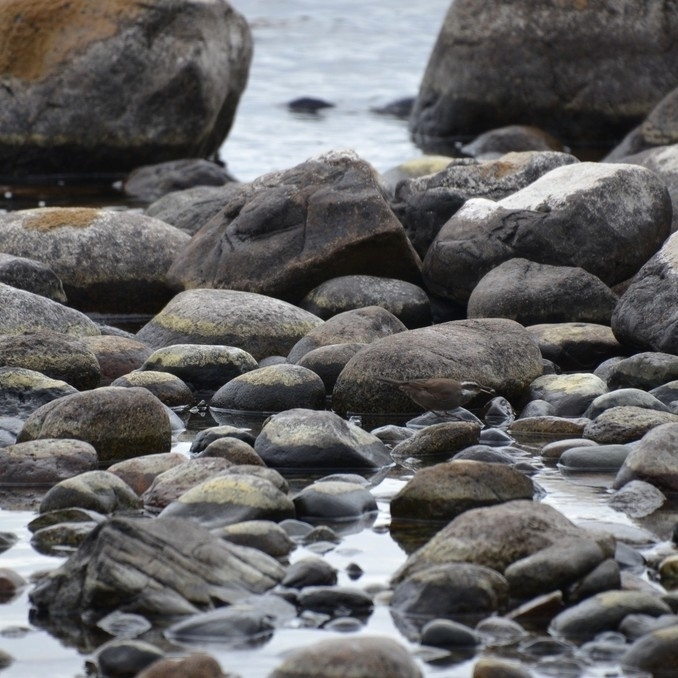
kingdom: Animalia
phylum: Chordata
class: Aves
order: Passeriformes
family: Furnariidae
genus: Cinclodes
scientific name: Cinclodes patagonicus
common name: Dark-bellied cinclodes
